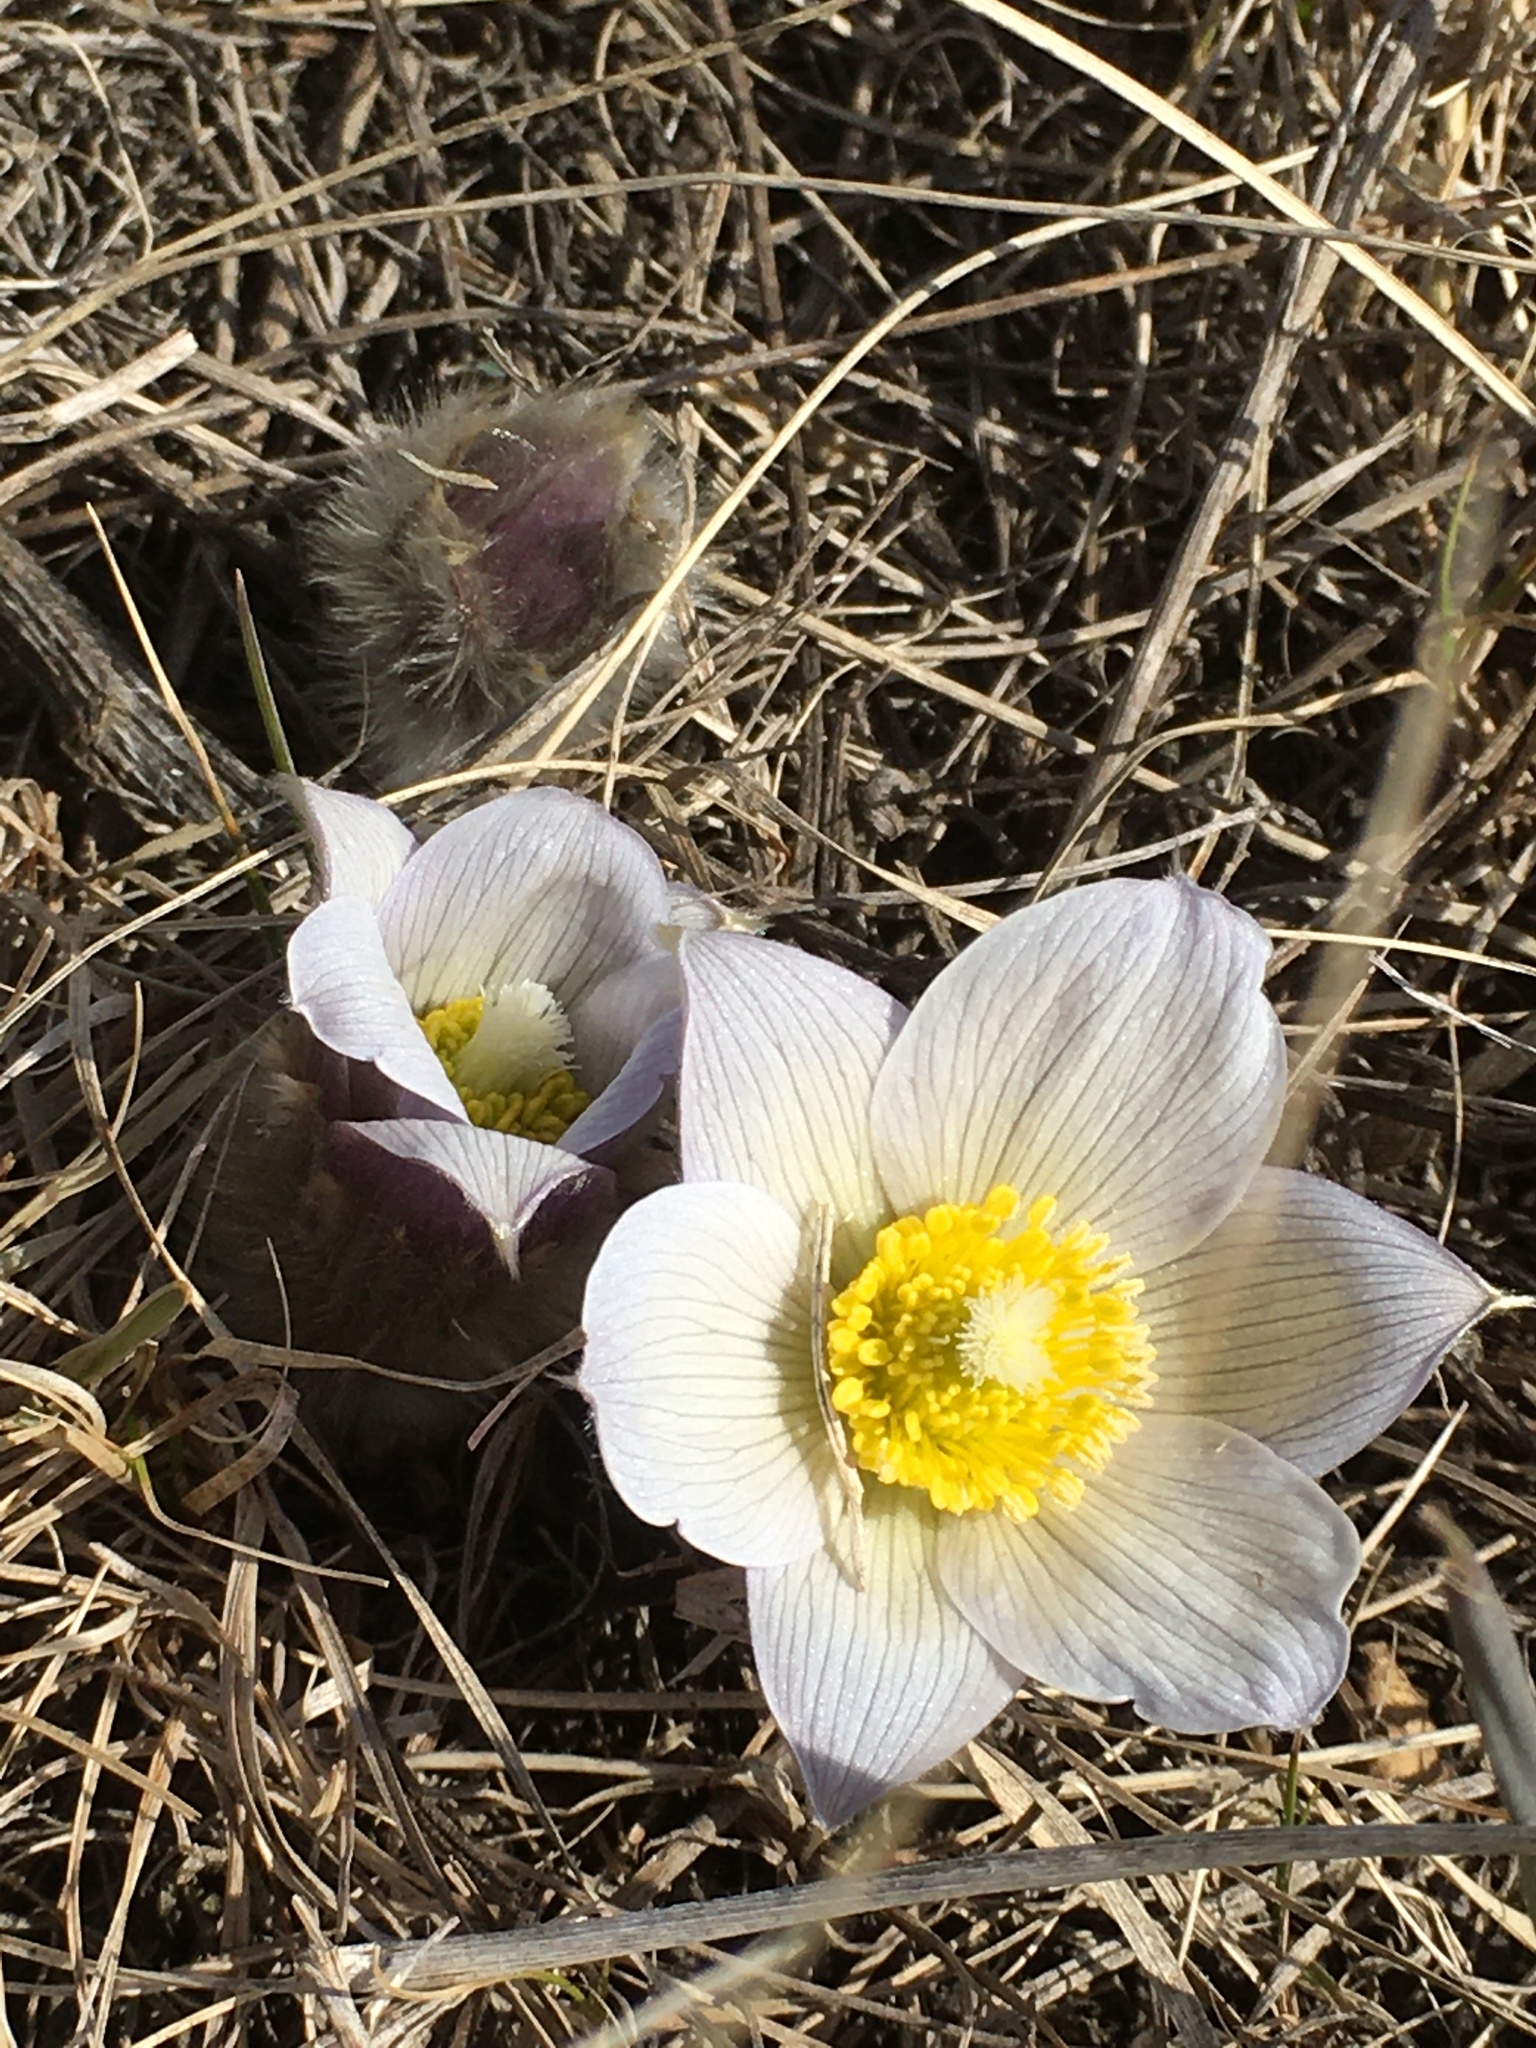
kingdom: Plantae
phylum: Tracheophyta
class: Magnoliopsida
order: Ranunculales
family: Ranunculaceae
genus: Pulsatilla
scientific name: Pulsatilla nuttalliana
